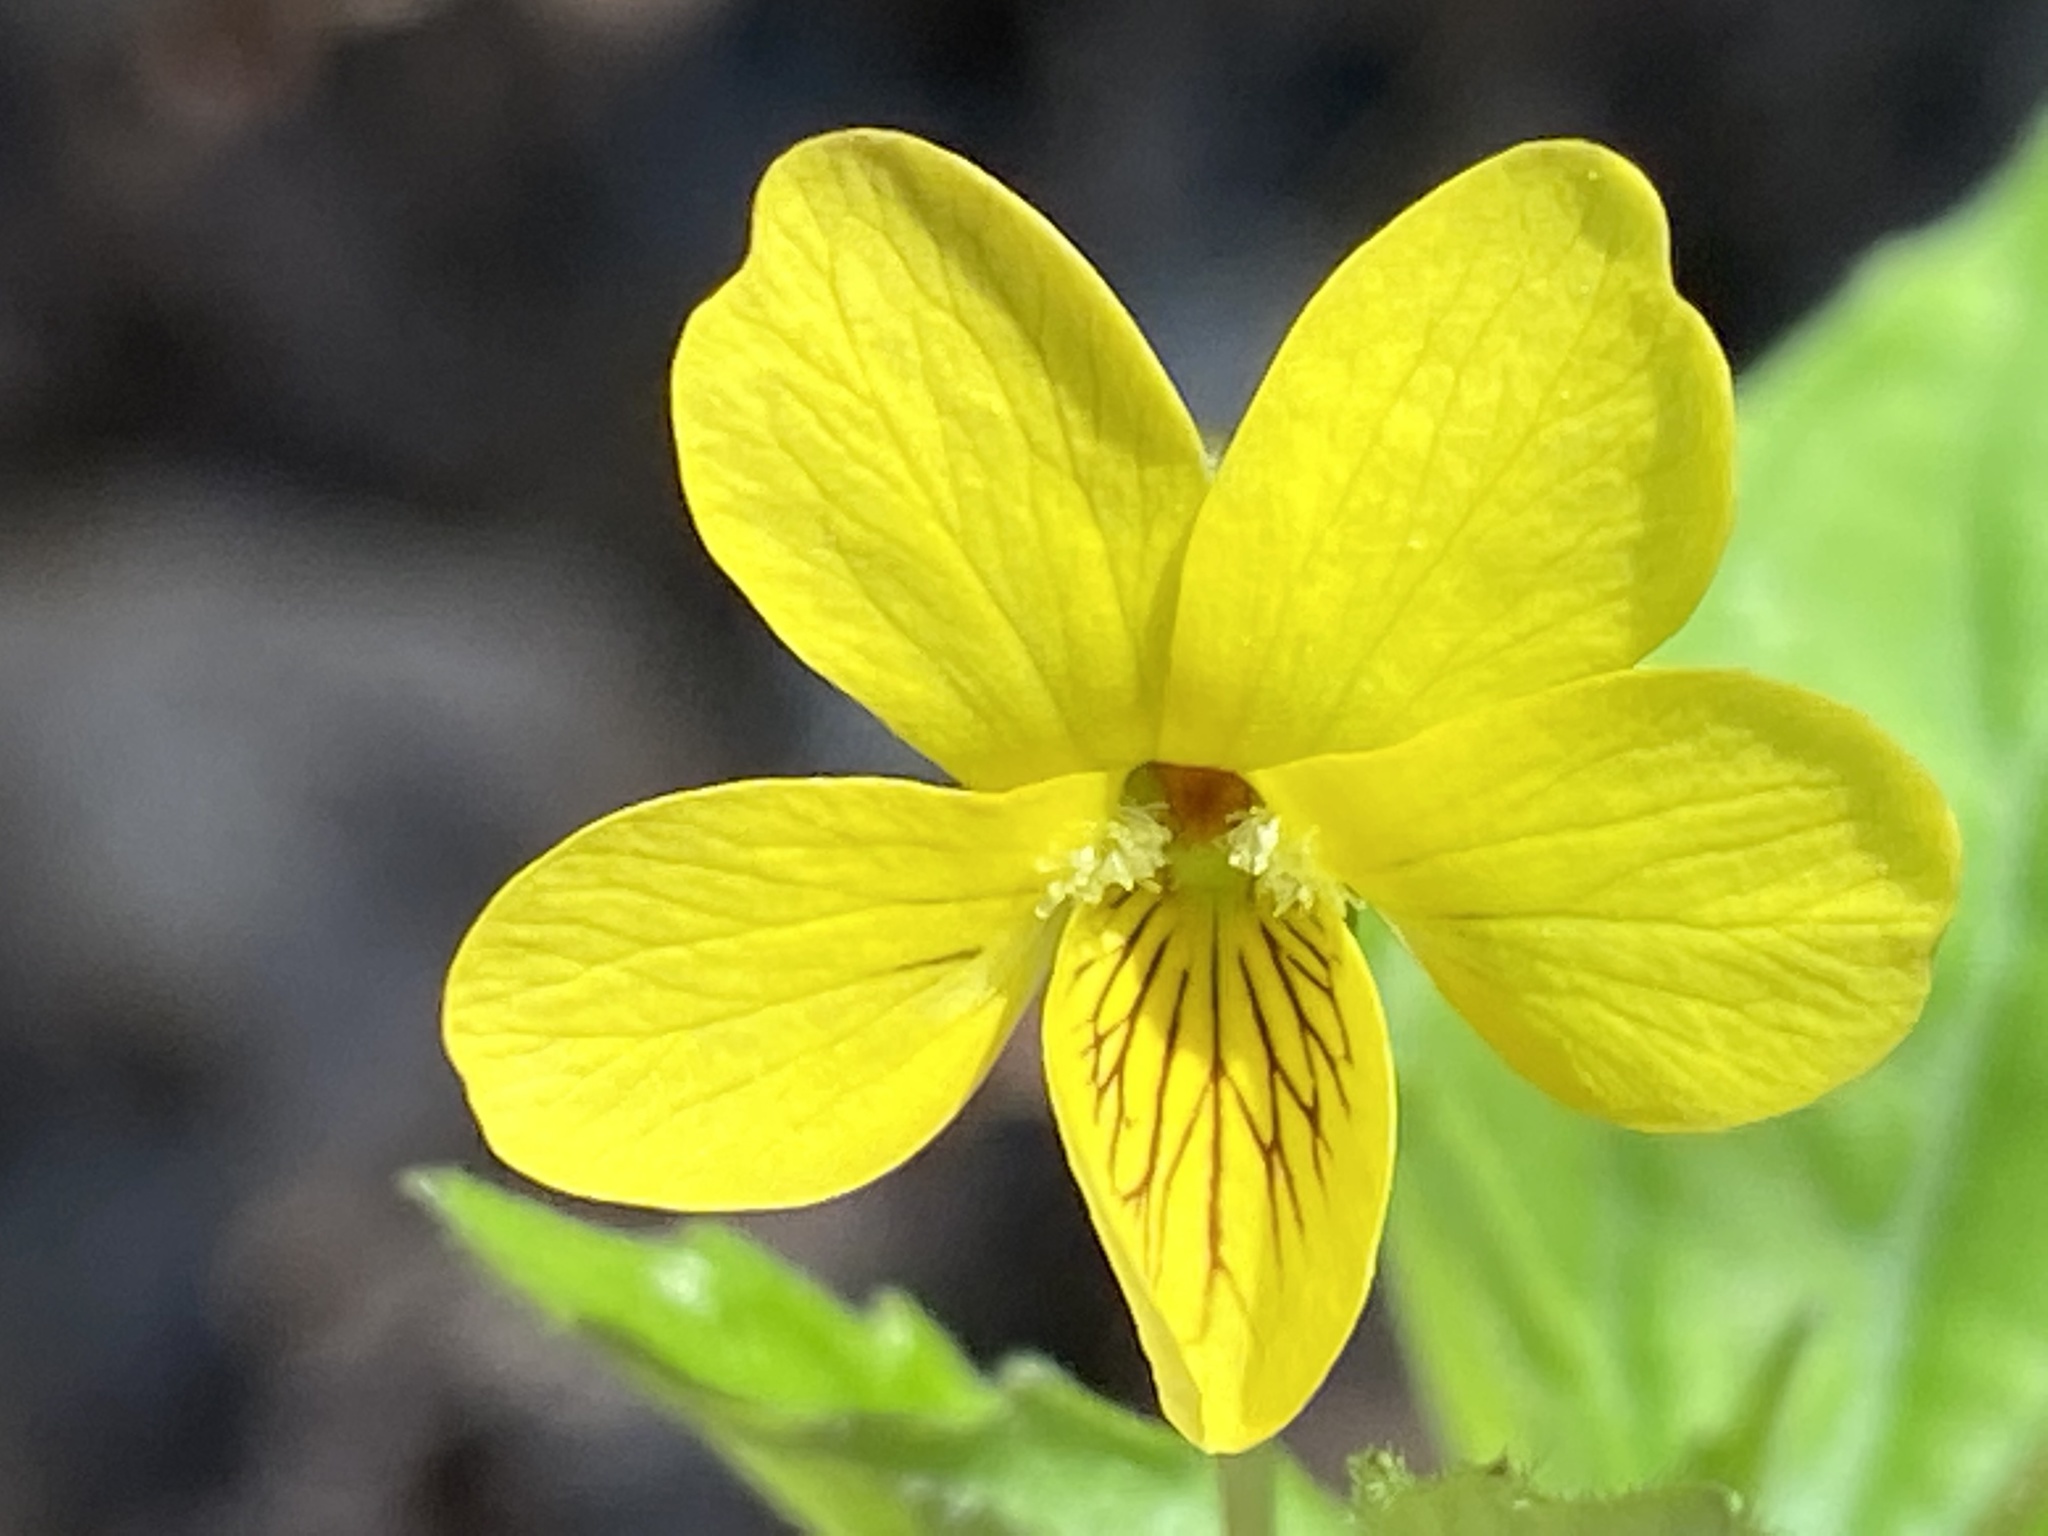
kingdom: Plantae
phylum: Tracheophyta
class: Magnoliopsida
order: Malpighiales
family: Violaceae
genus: Viola
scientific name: Viola eriocarpa
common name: Smooth yellow violet
